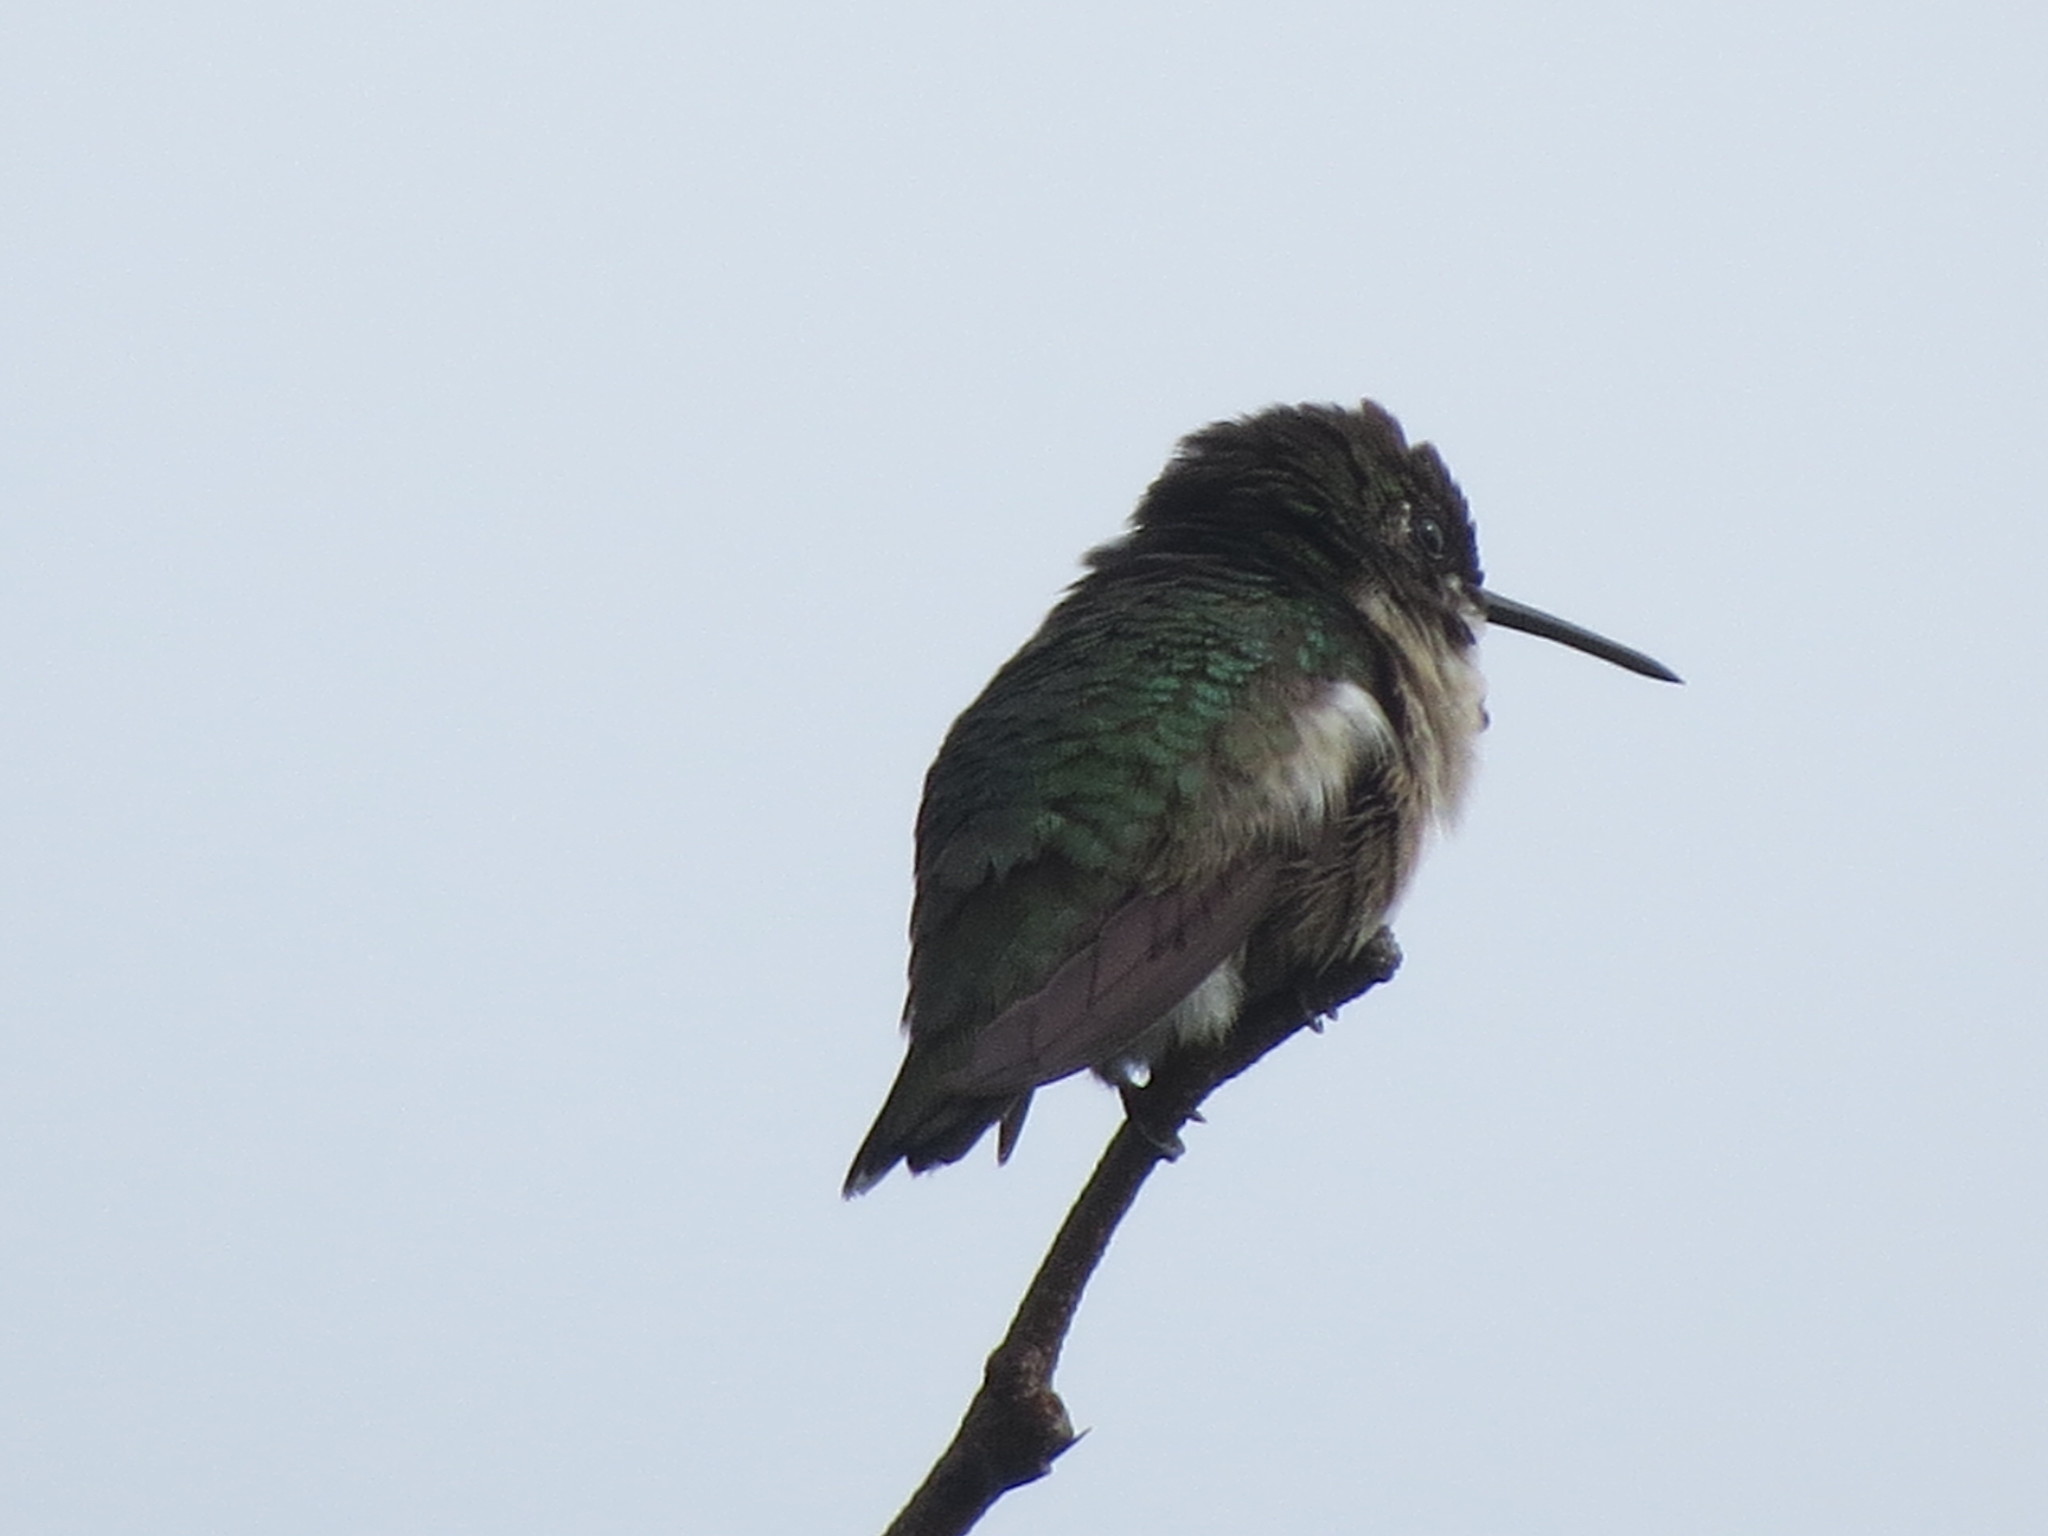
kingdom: Animalia
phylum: Chordata
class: Aves
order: Apodiformes
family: Trochilidae
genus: Archilochus
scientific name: Archilochus colubris
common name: Ruby-throated hummingbird
